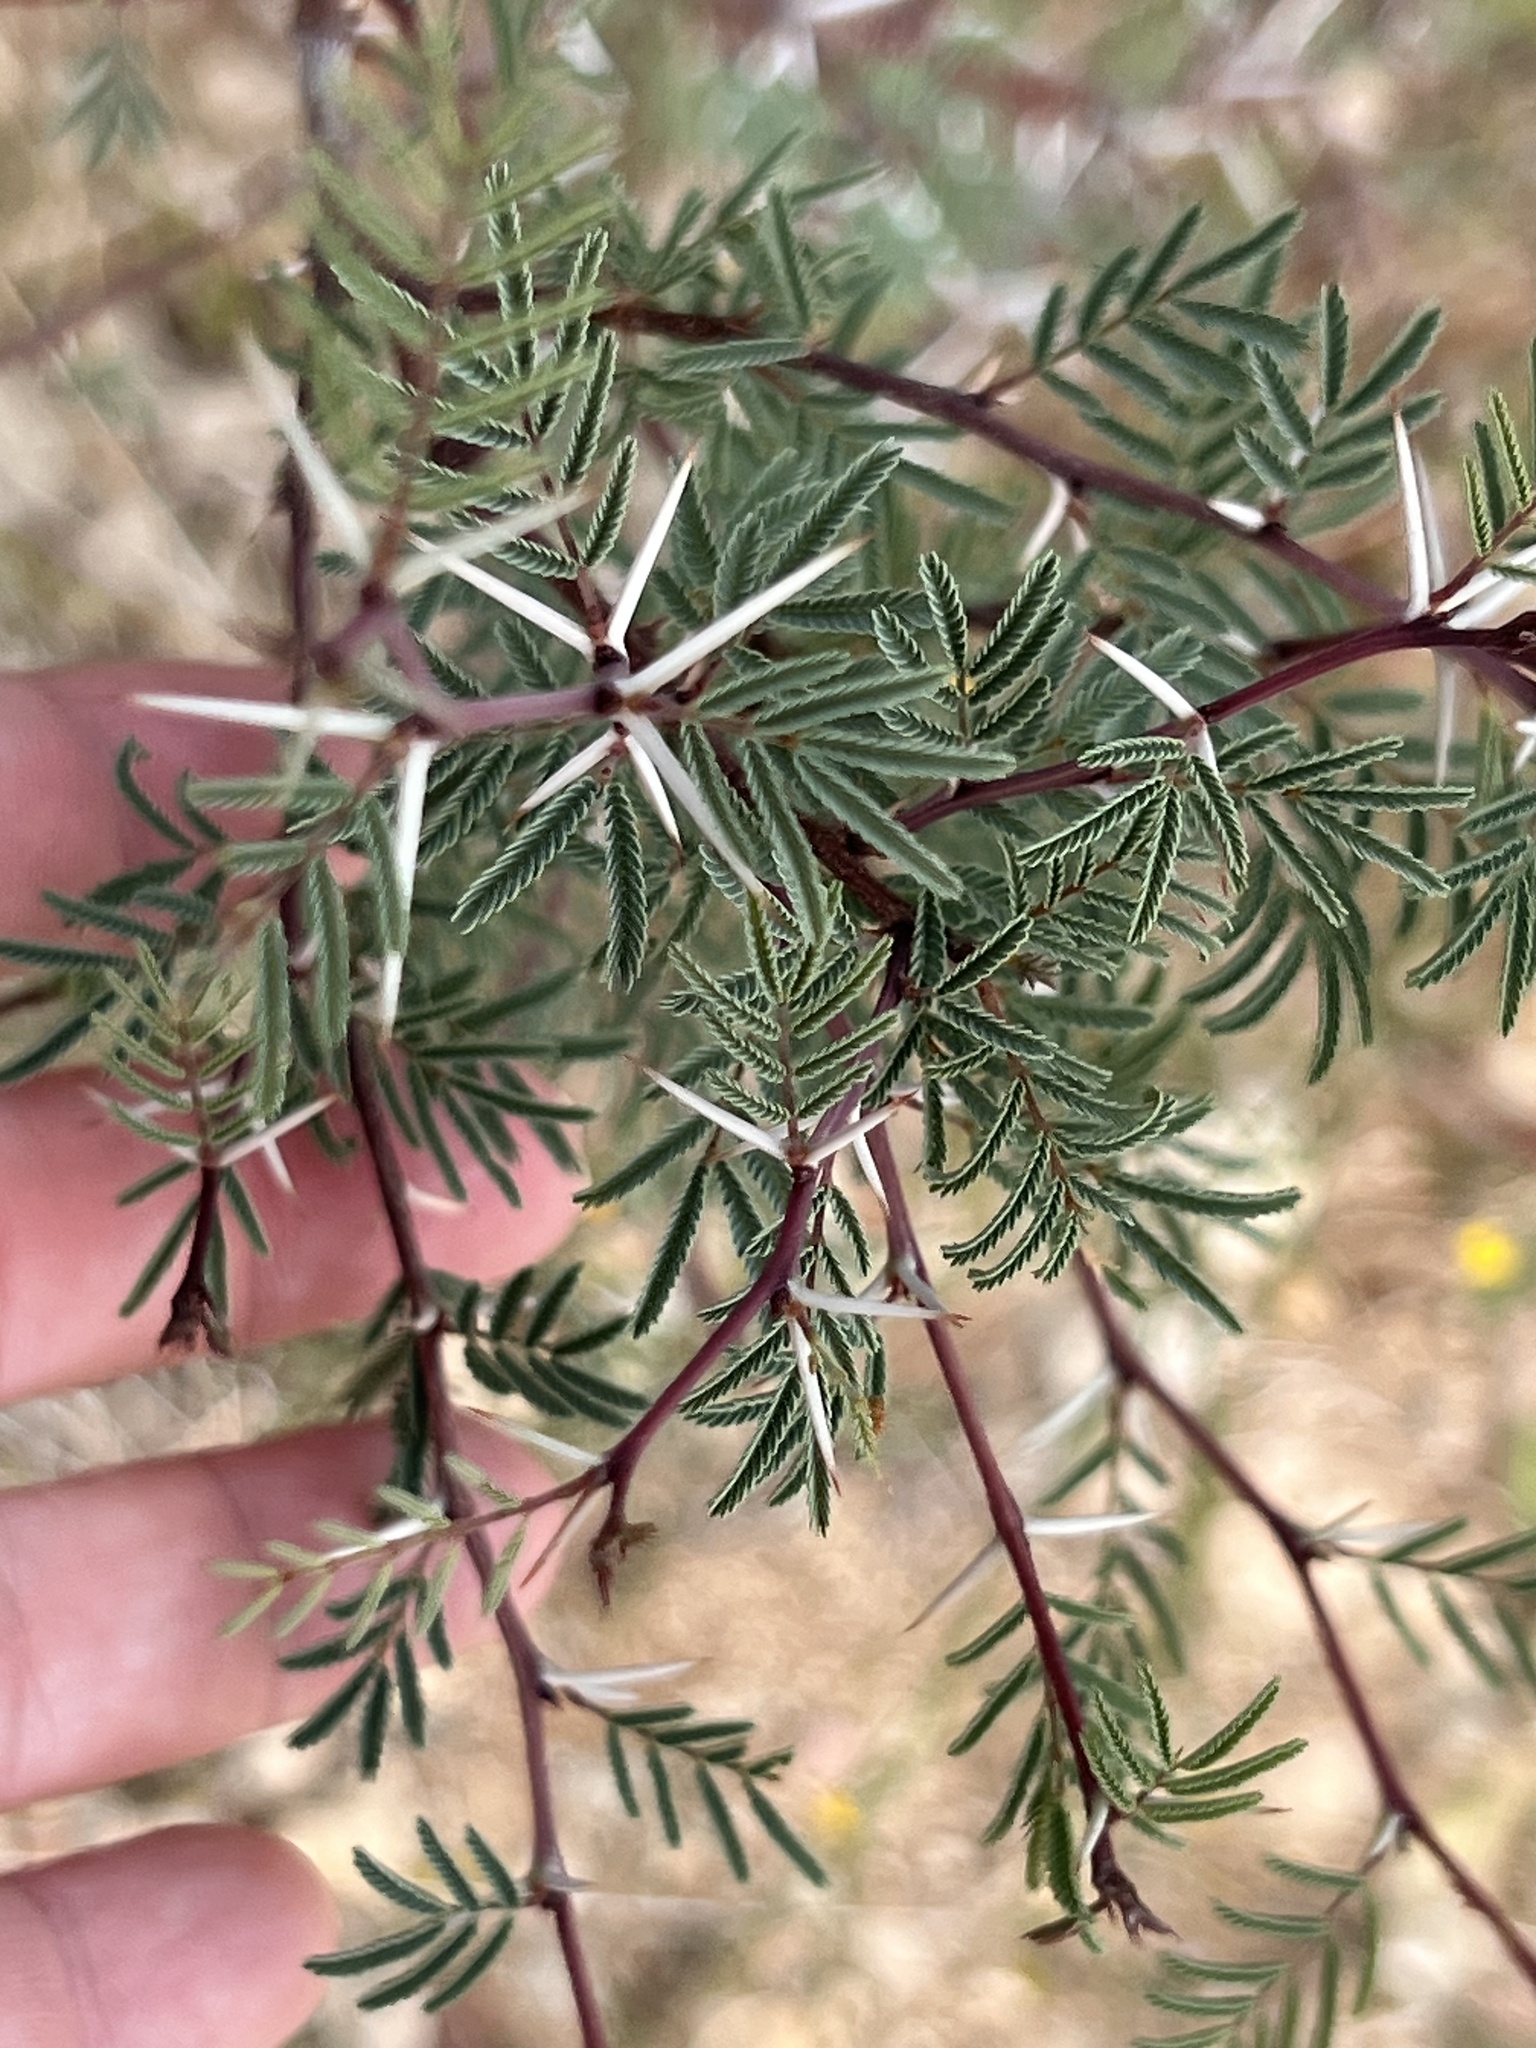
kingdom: Plantae
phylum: Tracheophyta
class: Magnoliopsida
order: Fabales
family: Fabaceae
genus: Vachellia
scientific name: Vachellia farnesiana
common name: Sweet acacia
